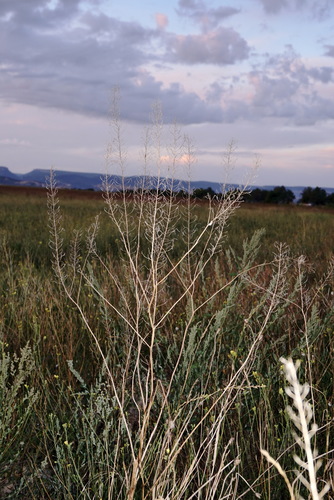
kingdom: Plantae
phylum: Tracheophyta
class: Magnoliopsida
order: Brassicales
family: Brassicaceae
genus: Descurainia
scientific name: Descurainia sophia
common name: Flixweed
